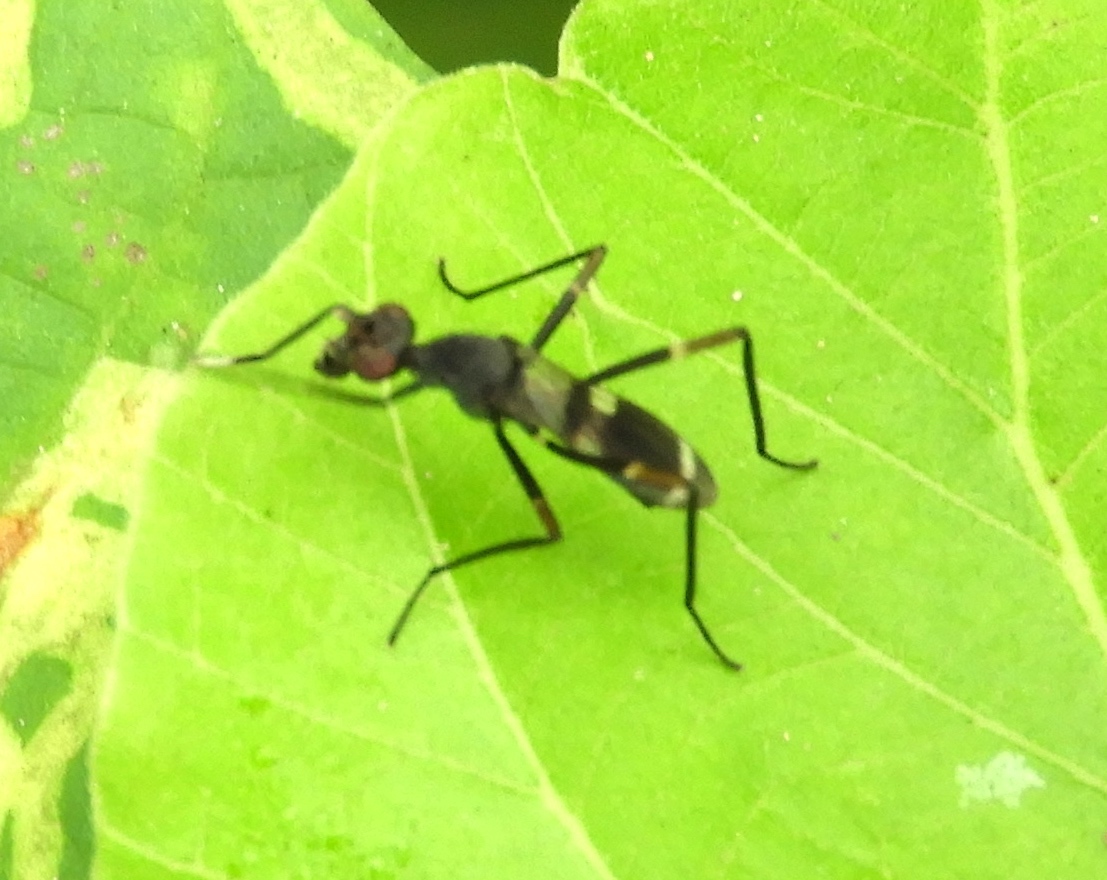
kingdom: Animalia
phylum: Arthropoda
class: Insecta
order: Diptera
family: Micropezidae
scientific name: Micropezidae
